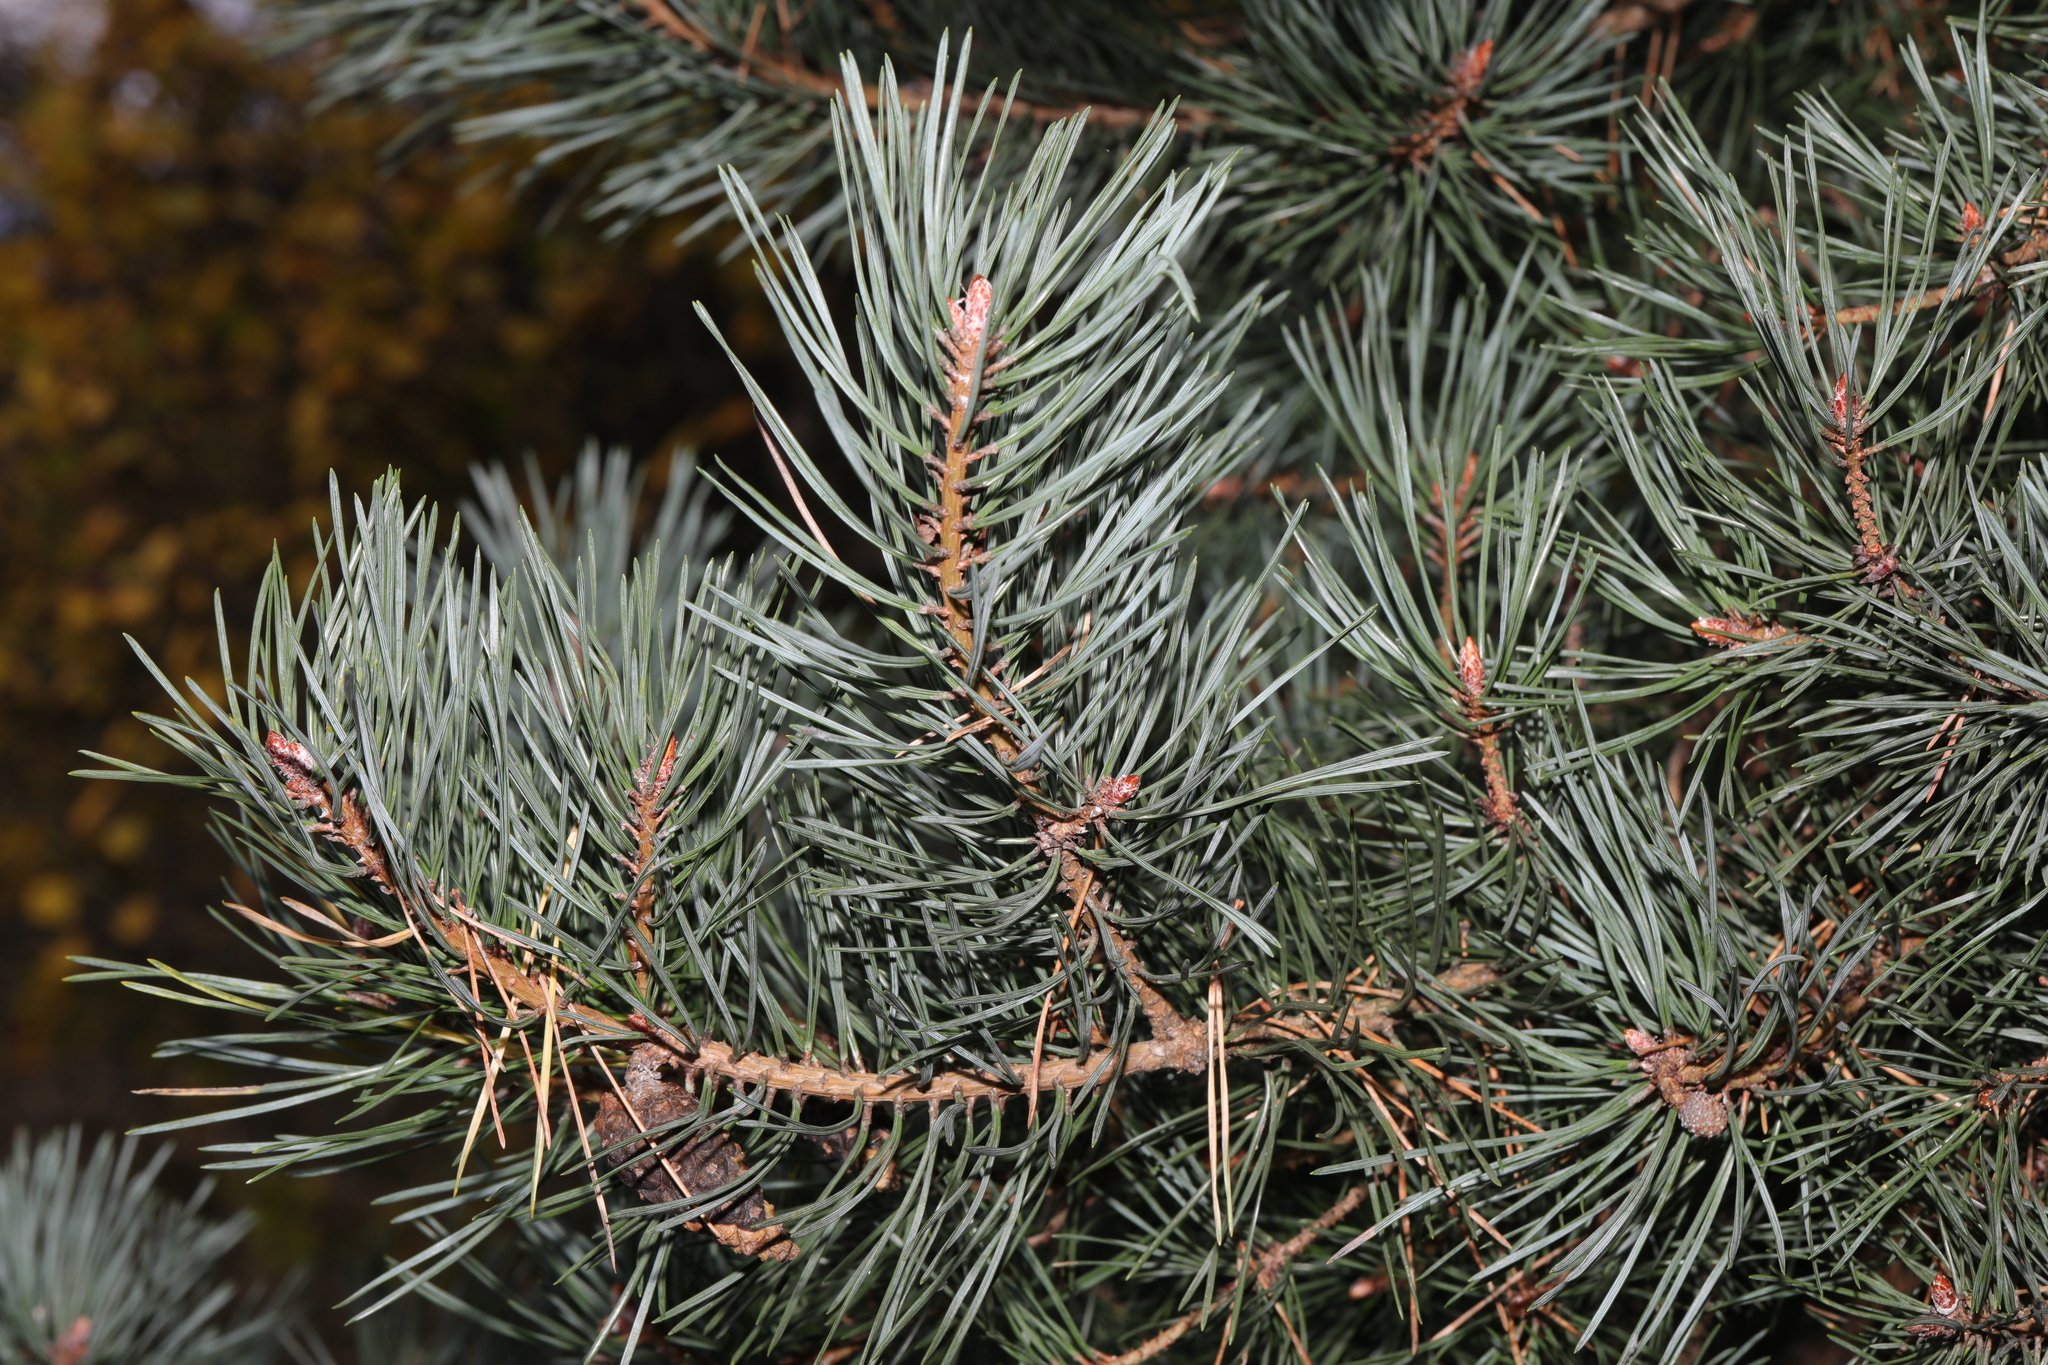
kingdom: Plantae
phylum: Tracheophyta
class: Pinopsida
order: Pinales
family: Pinaceae
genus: Pinus
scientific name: Pinus sylvestris
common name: Scots pine
